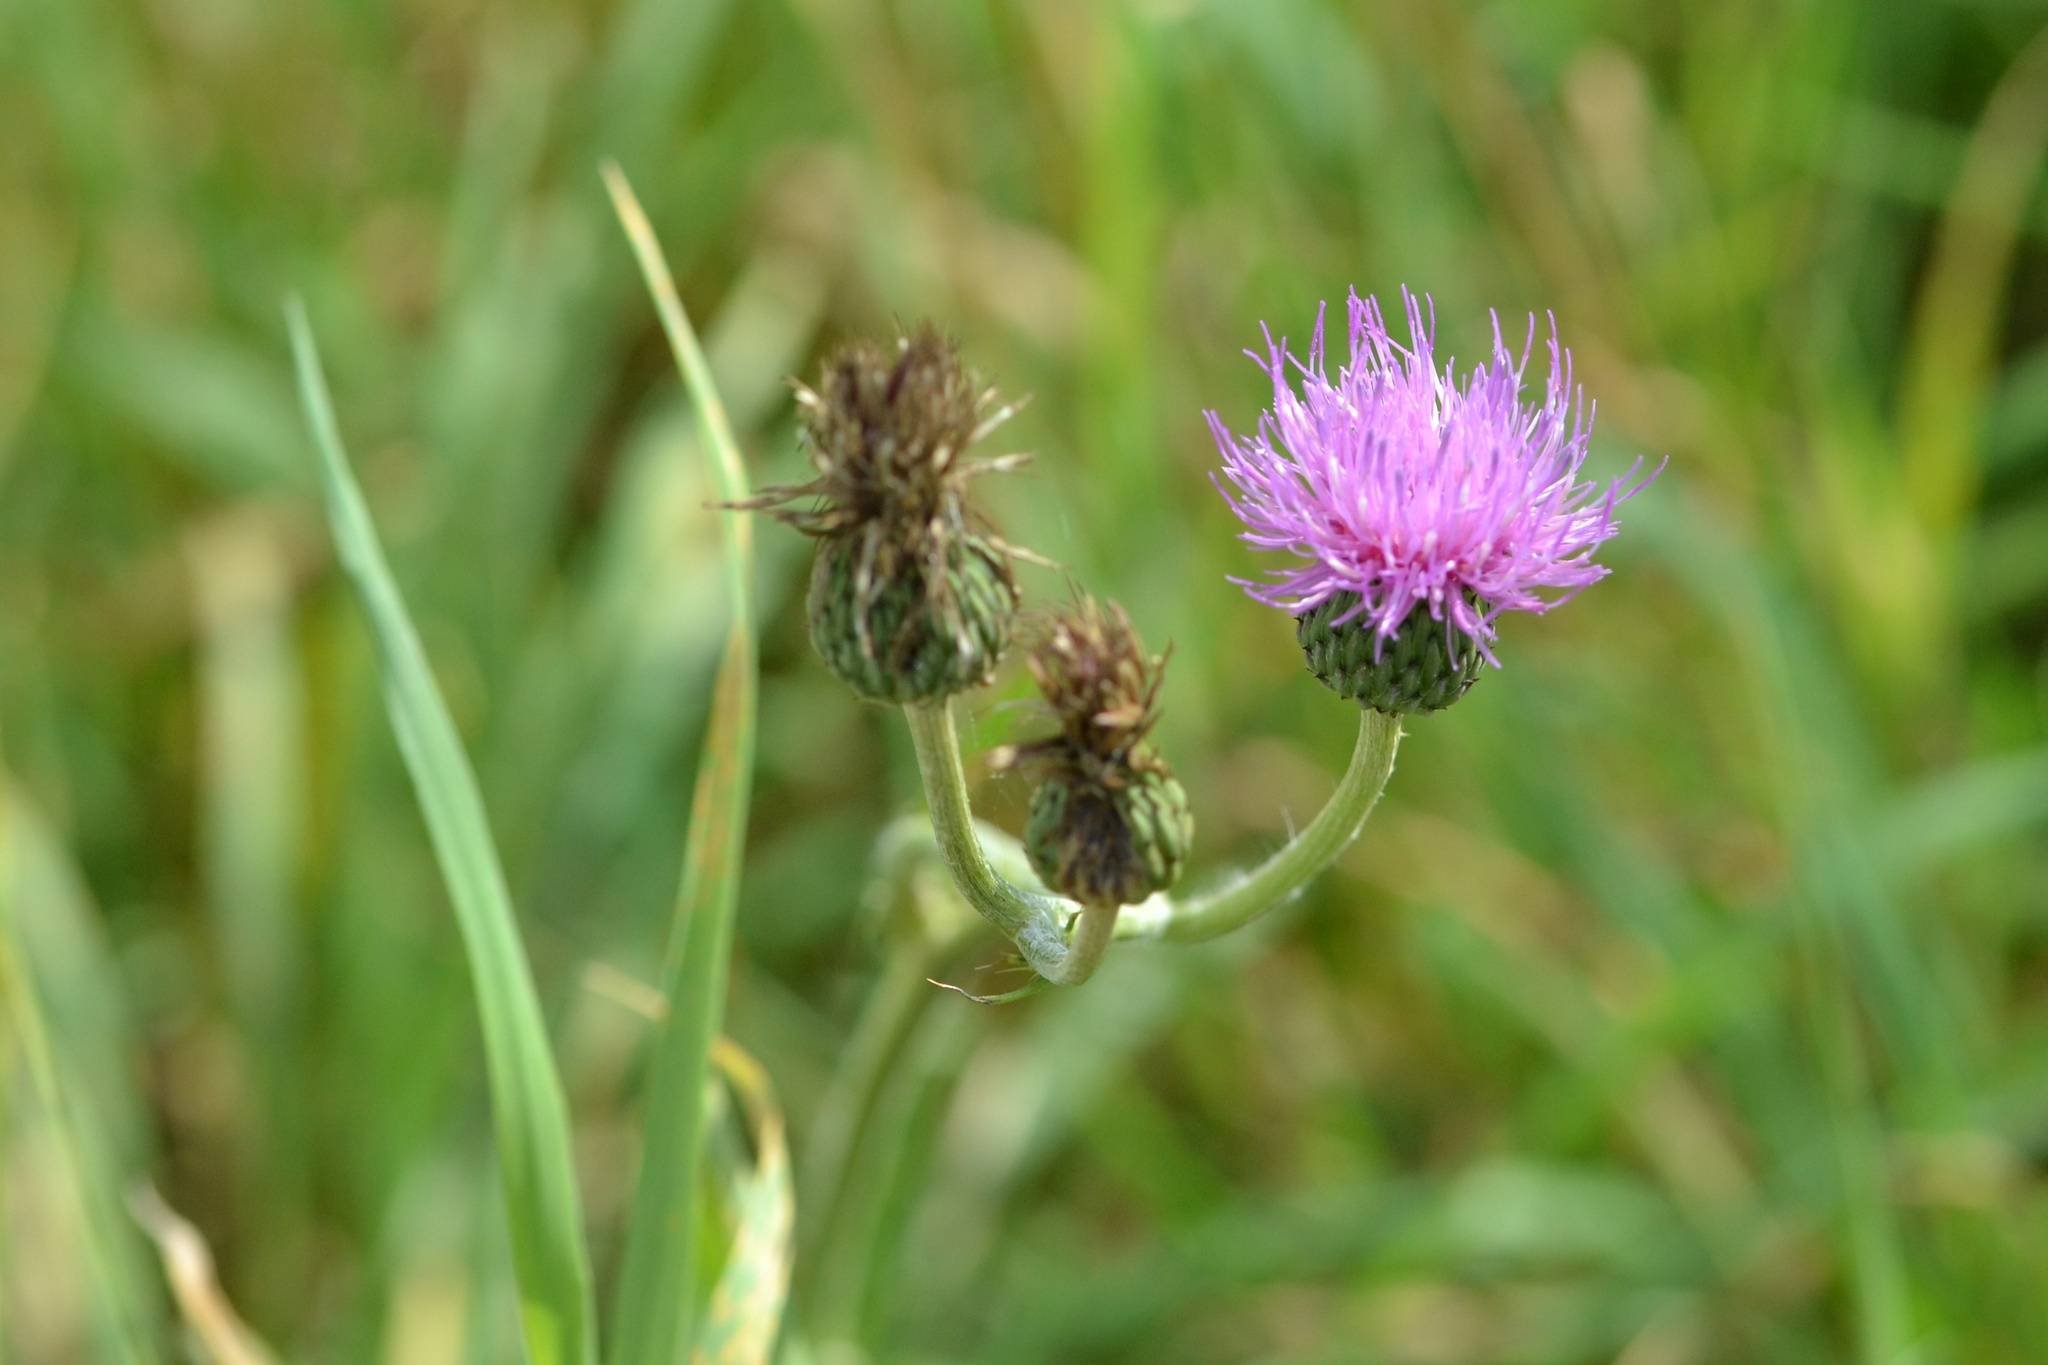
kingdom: Plantae
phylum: Tracheophyta
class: Magnoliopsida
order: Asterales
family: Asteraceae
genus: Cirsium
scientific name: Cirsium canum
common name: Queen anne's thistle
